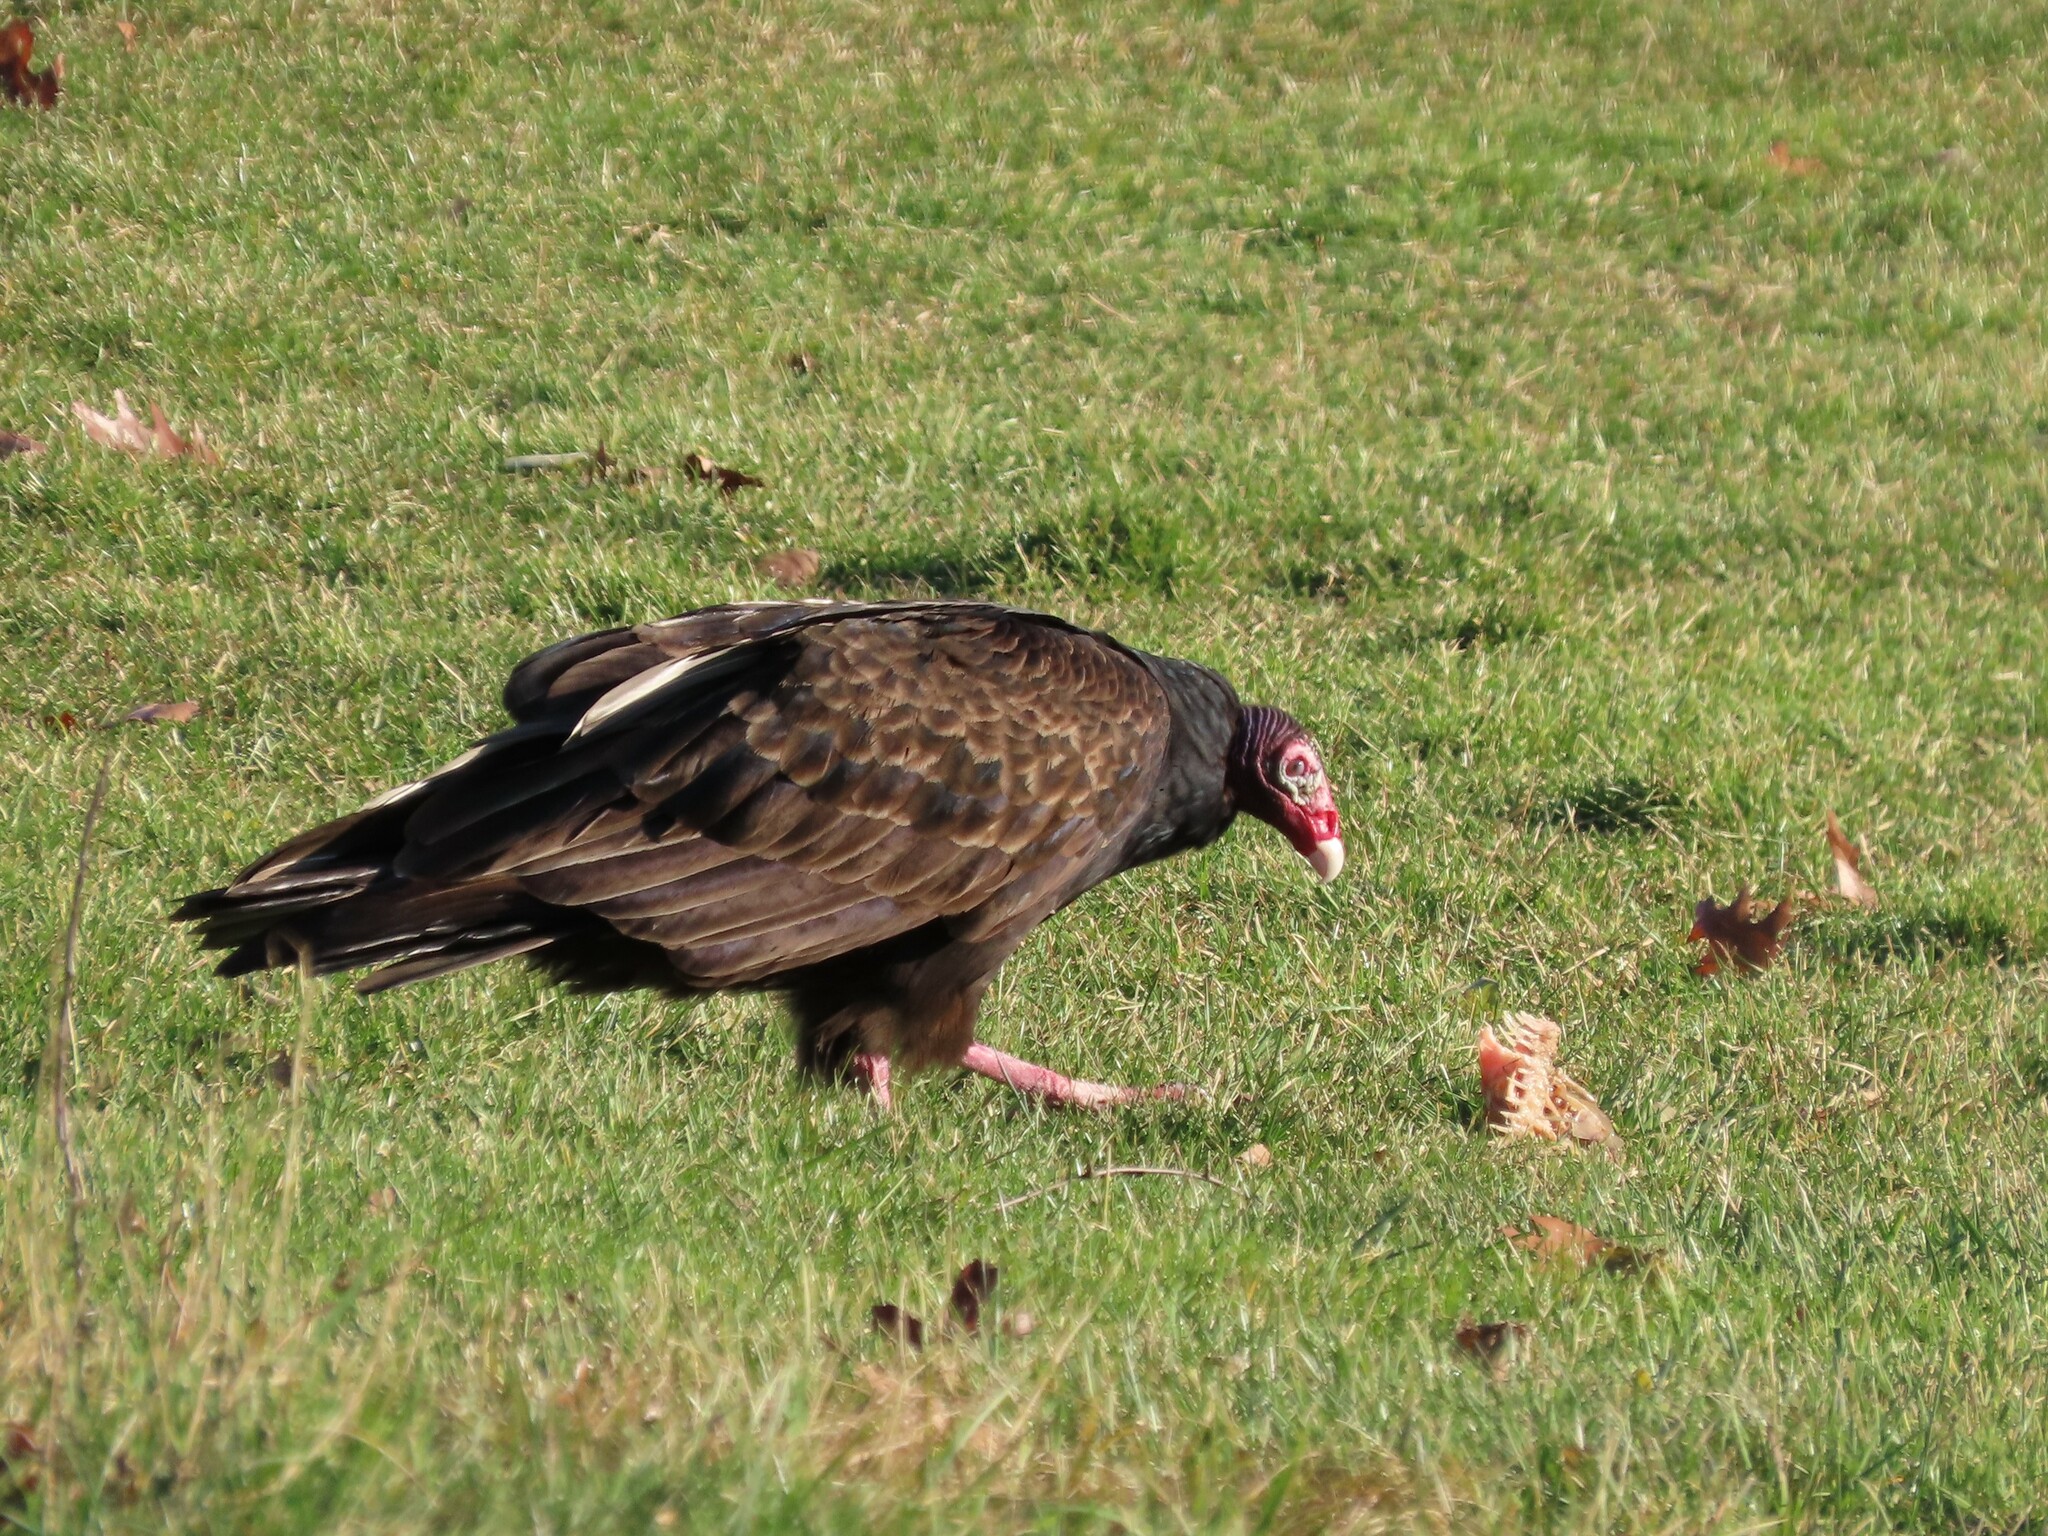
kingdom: Animalia
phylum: Chordata
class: Aves
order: Accipitriformes
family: Cathartidae
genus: Cathartes
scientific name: Cathartes aura
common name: Turkey vulture
